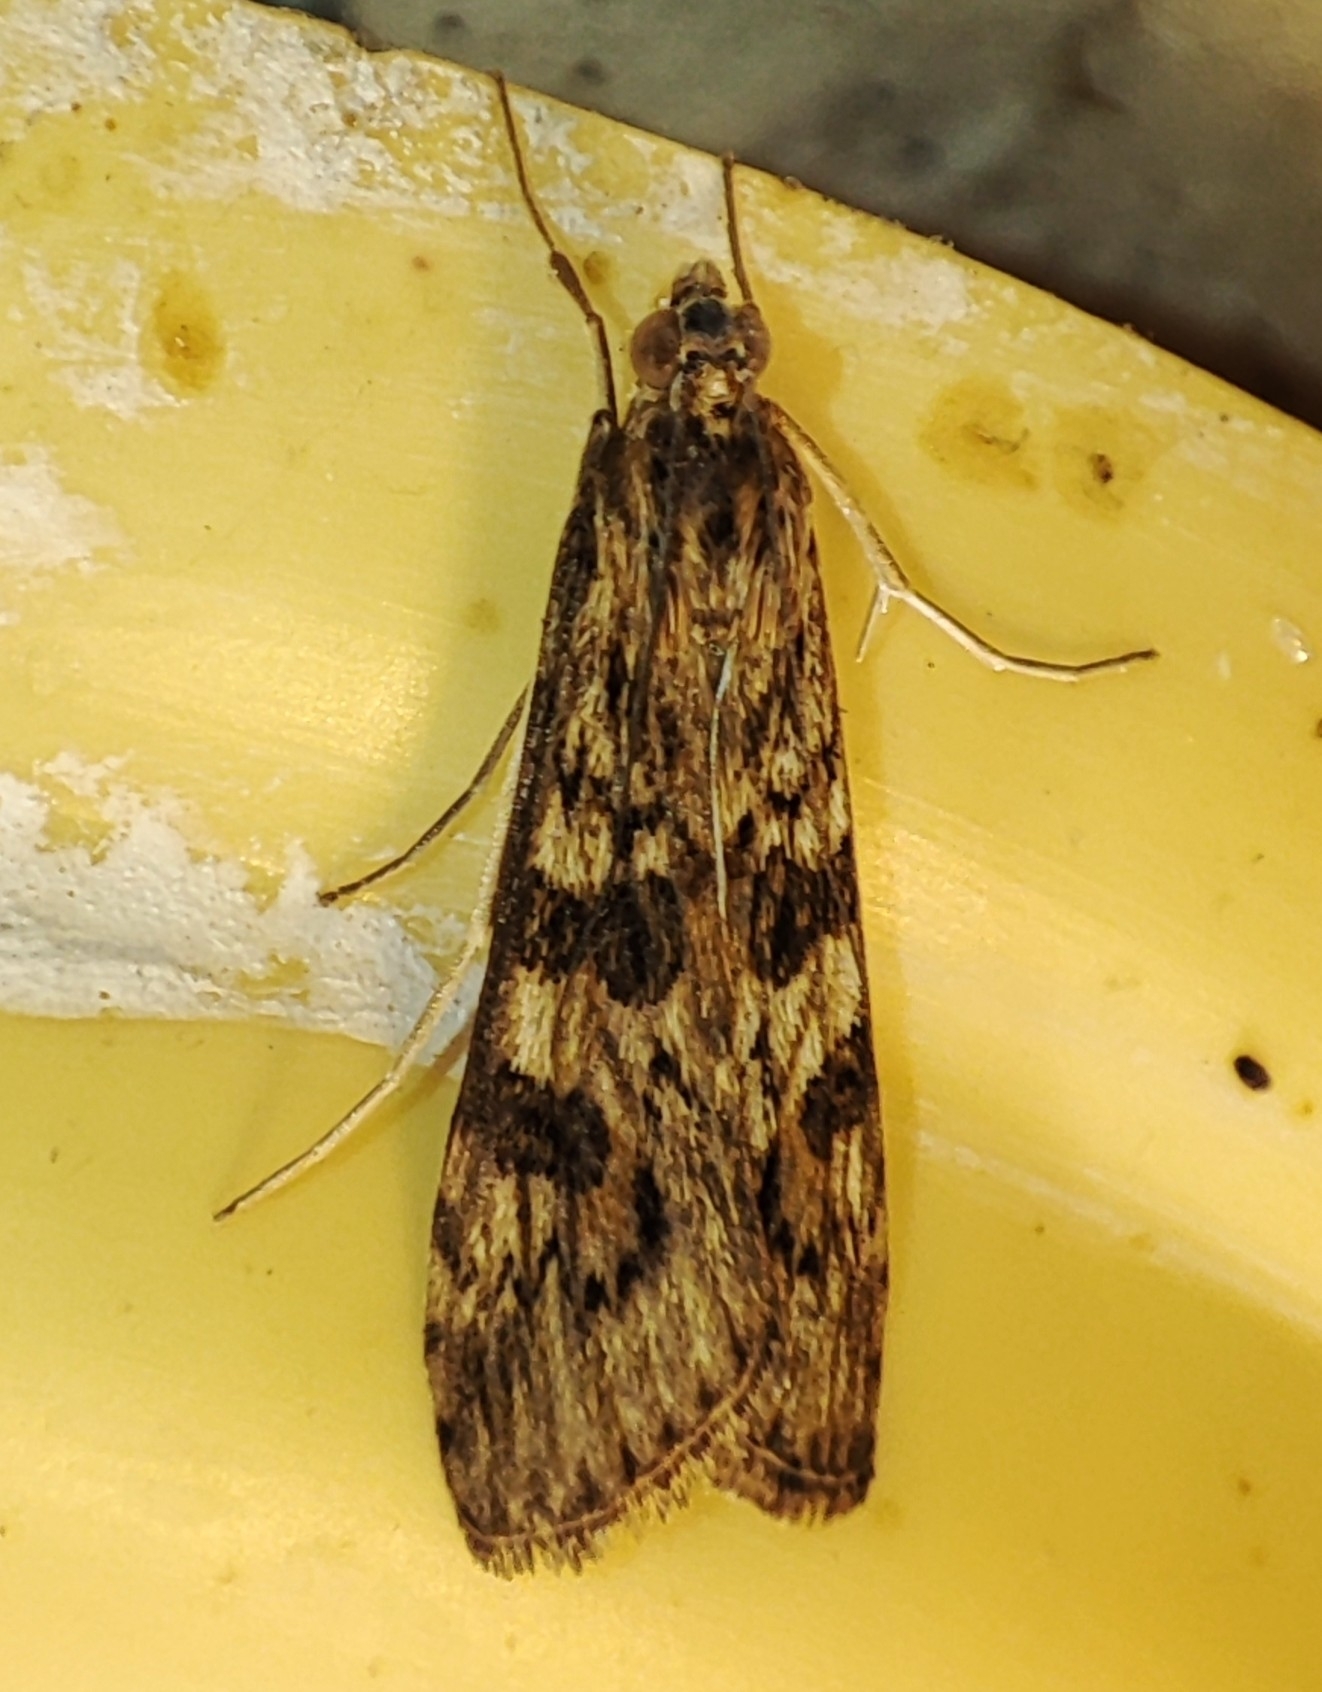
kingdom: Animalia
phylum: Arthropoda
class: Insecta
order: Lepidoptera
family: Crambidae
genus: Nomophila
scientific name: Nomophila noctuella
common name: Rush veneer
